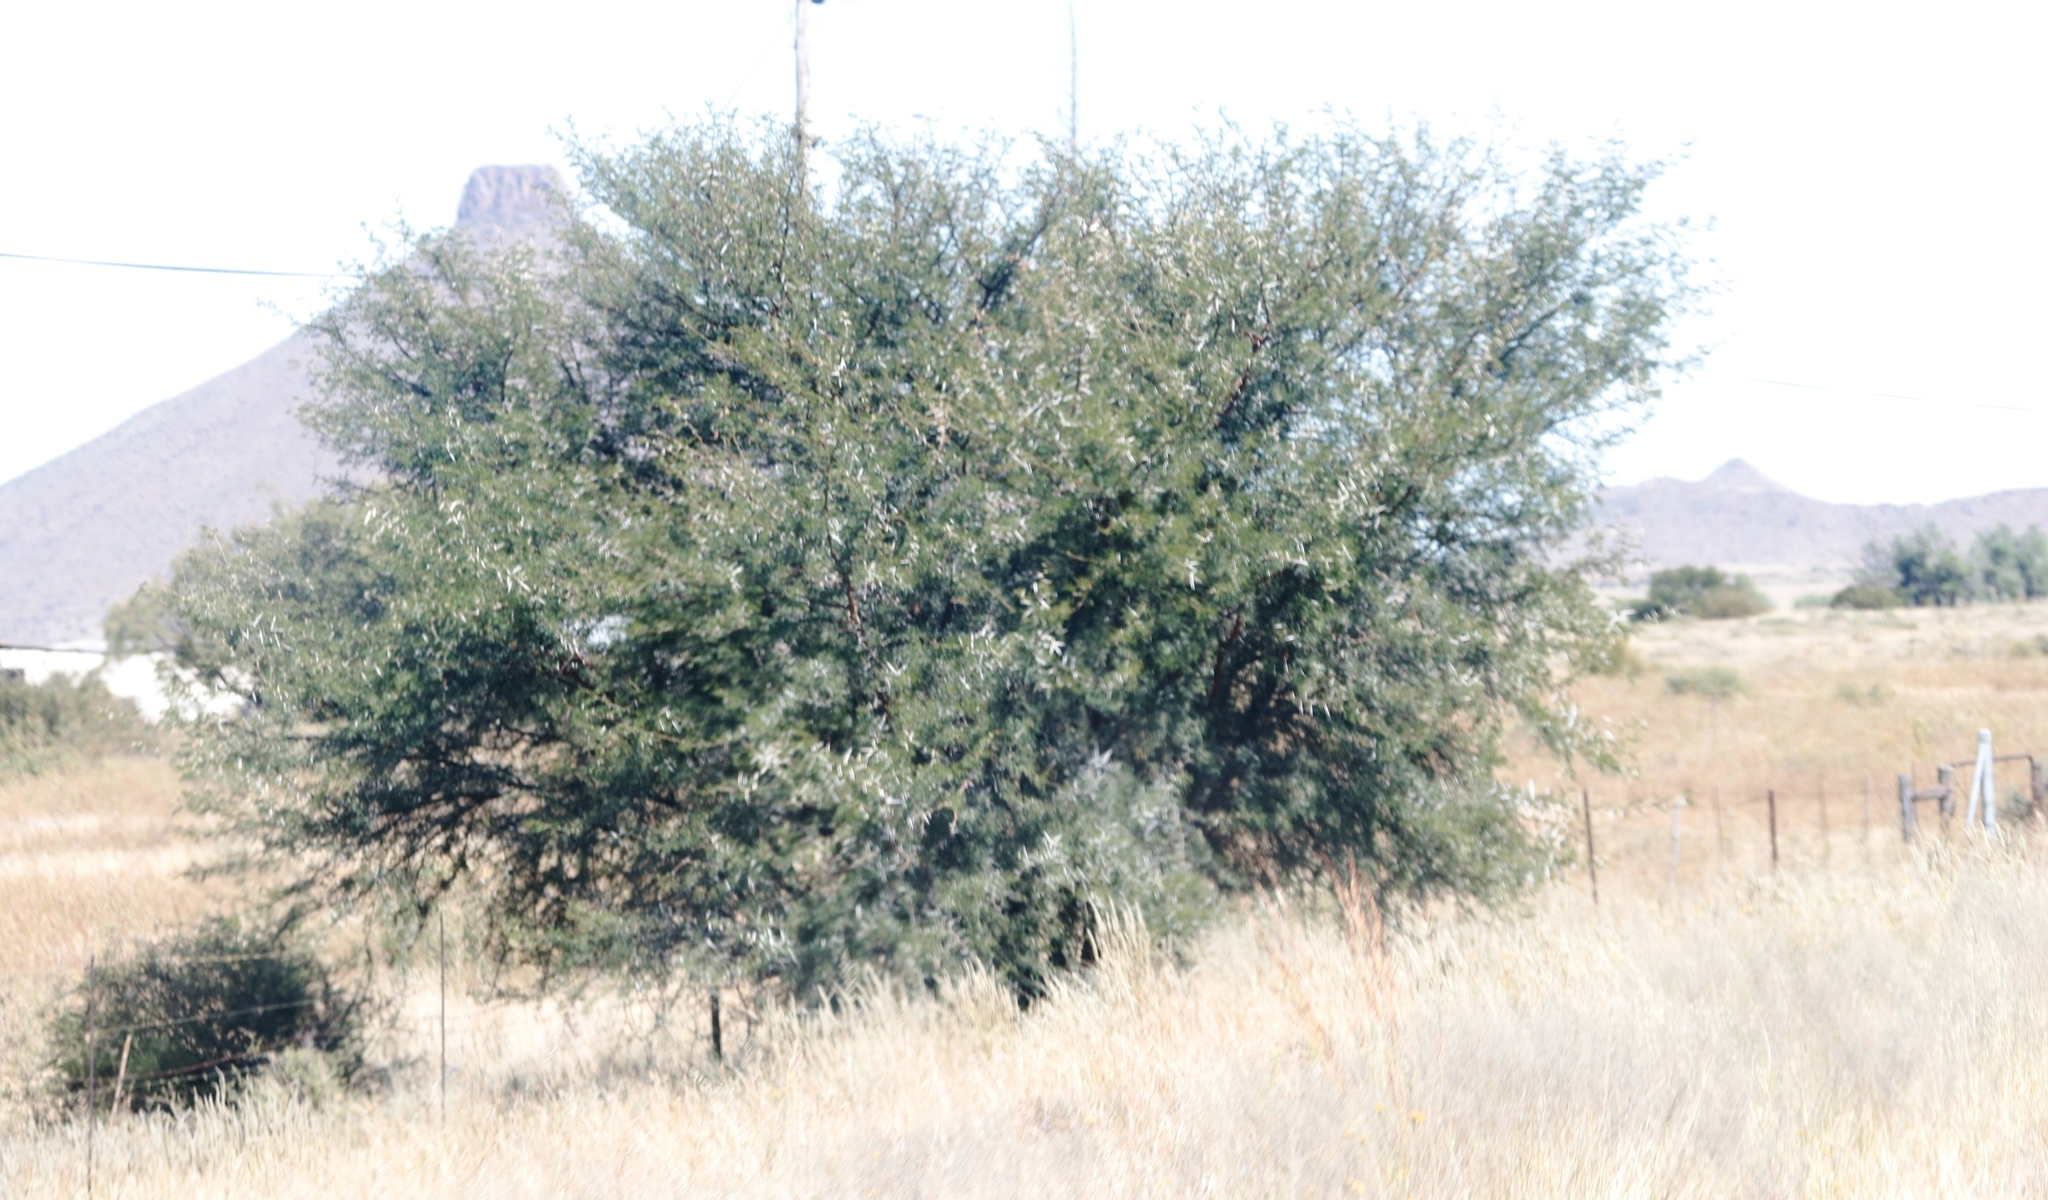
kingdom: Plantae
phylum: Tracheophyta
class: Magnoliopsida
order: Fabales
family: Fabaceae
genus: Vachellia
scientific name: Vachellia karroo
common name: Sweet thorn
